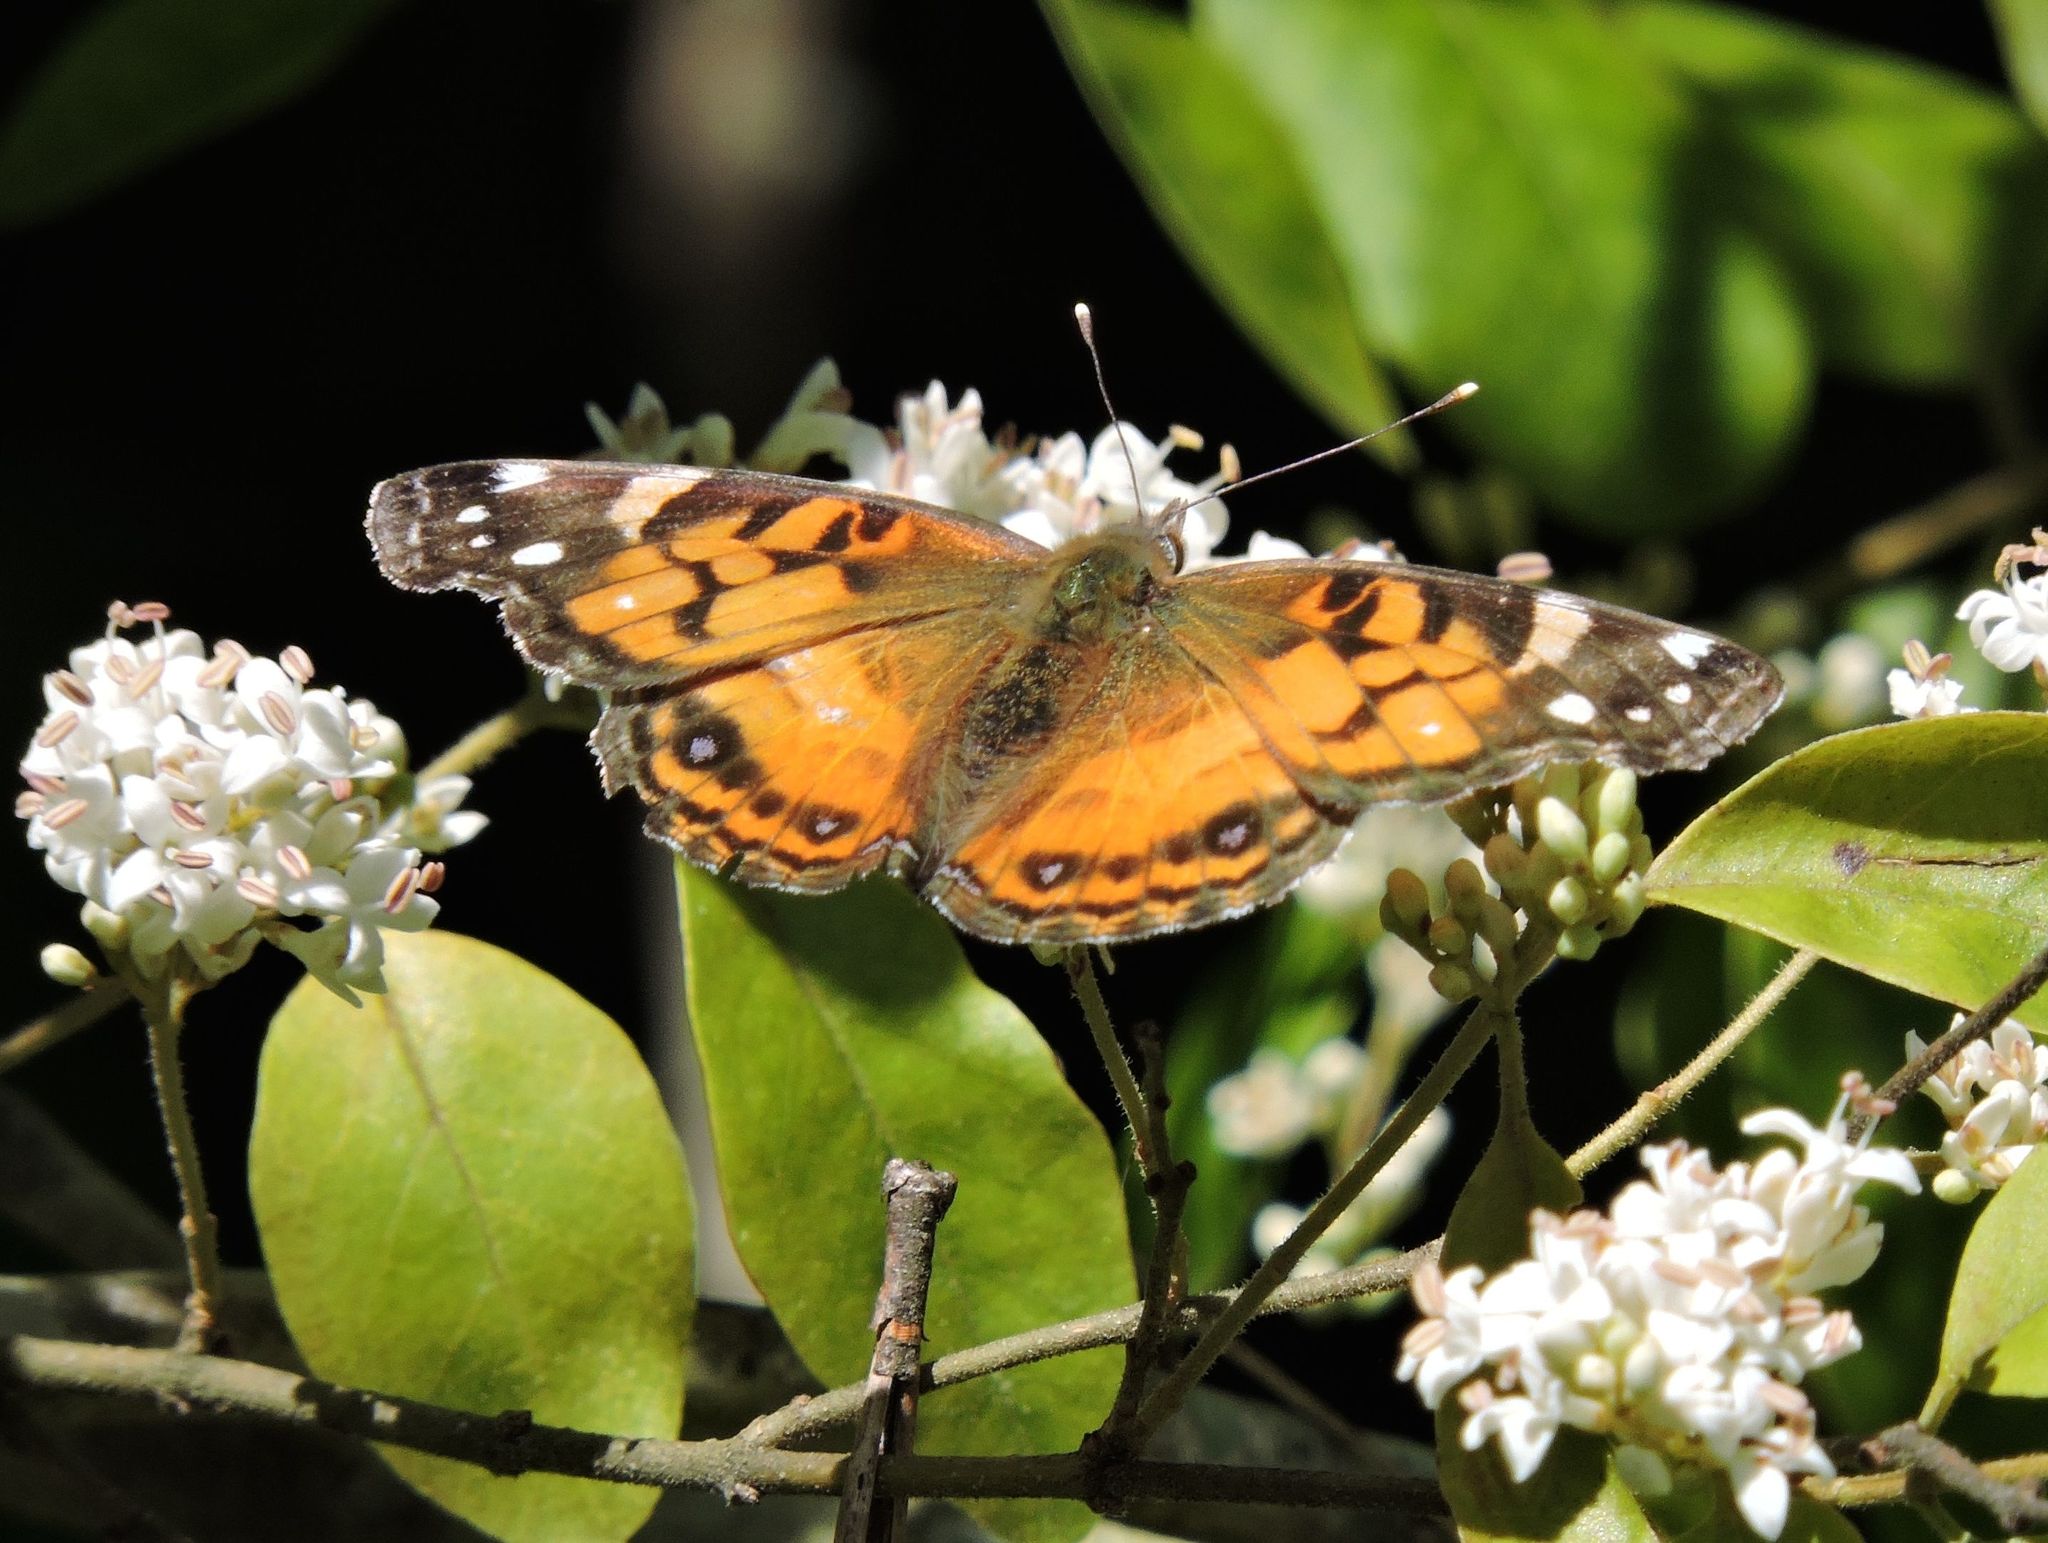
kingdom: Animalia
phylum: Arthropoda
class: Insecta
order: Lepidoptera
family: Nymphalidae
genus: Vanessa
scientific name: Vanessa virginiensis
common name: American lady
